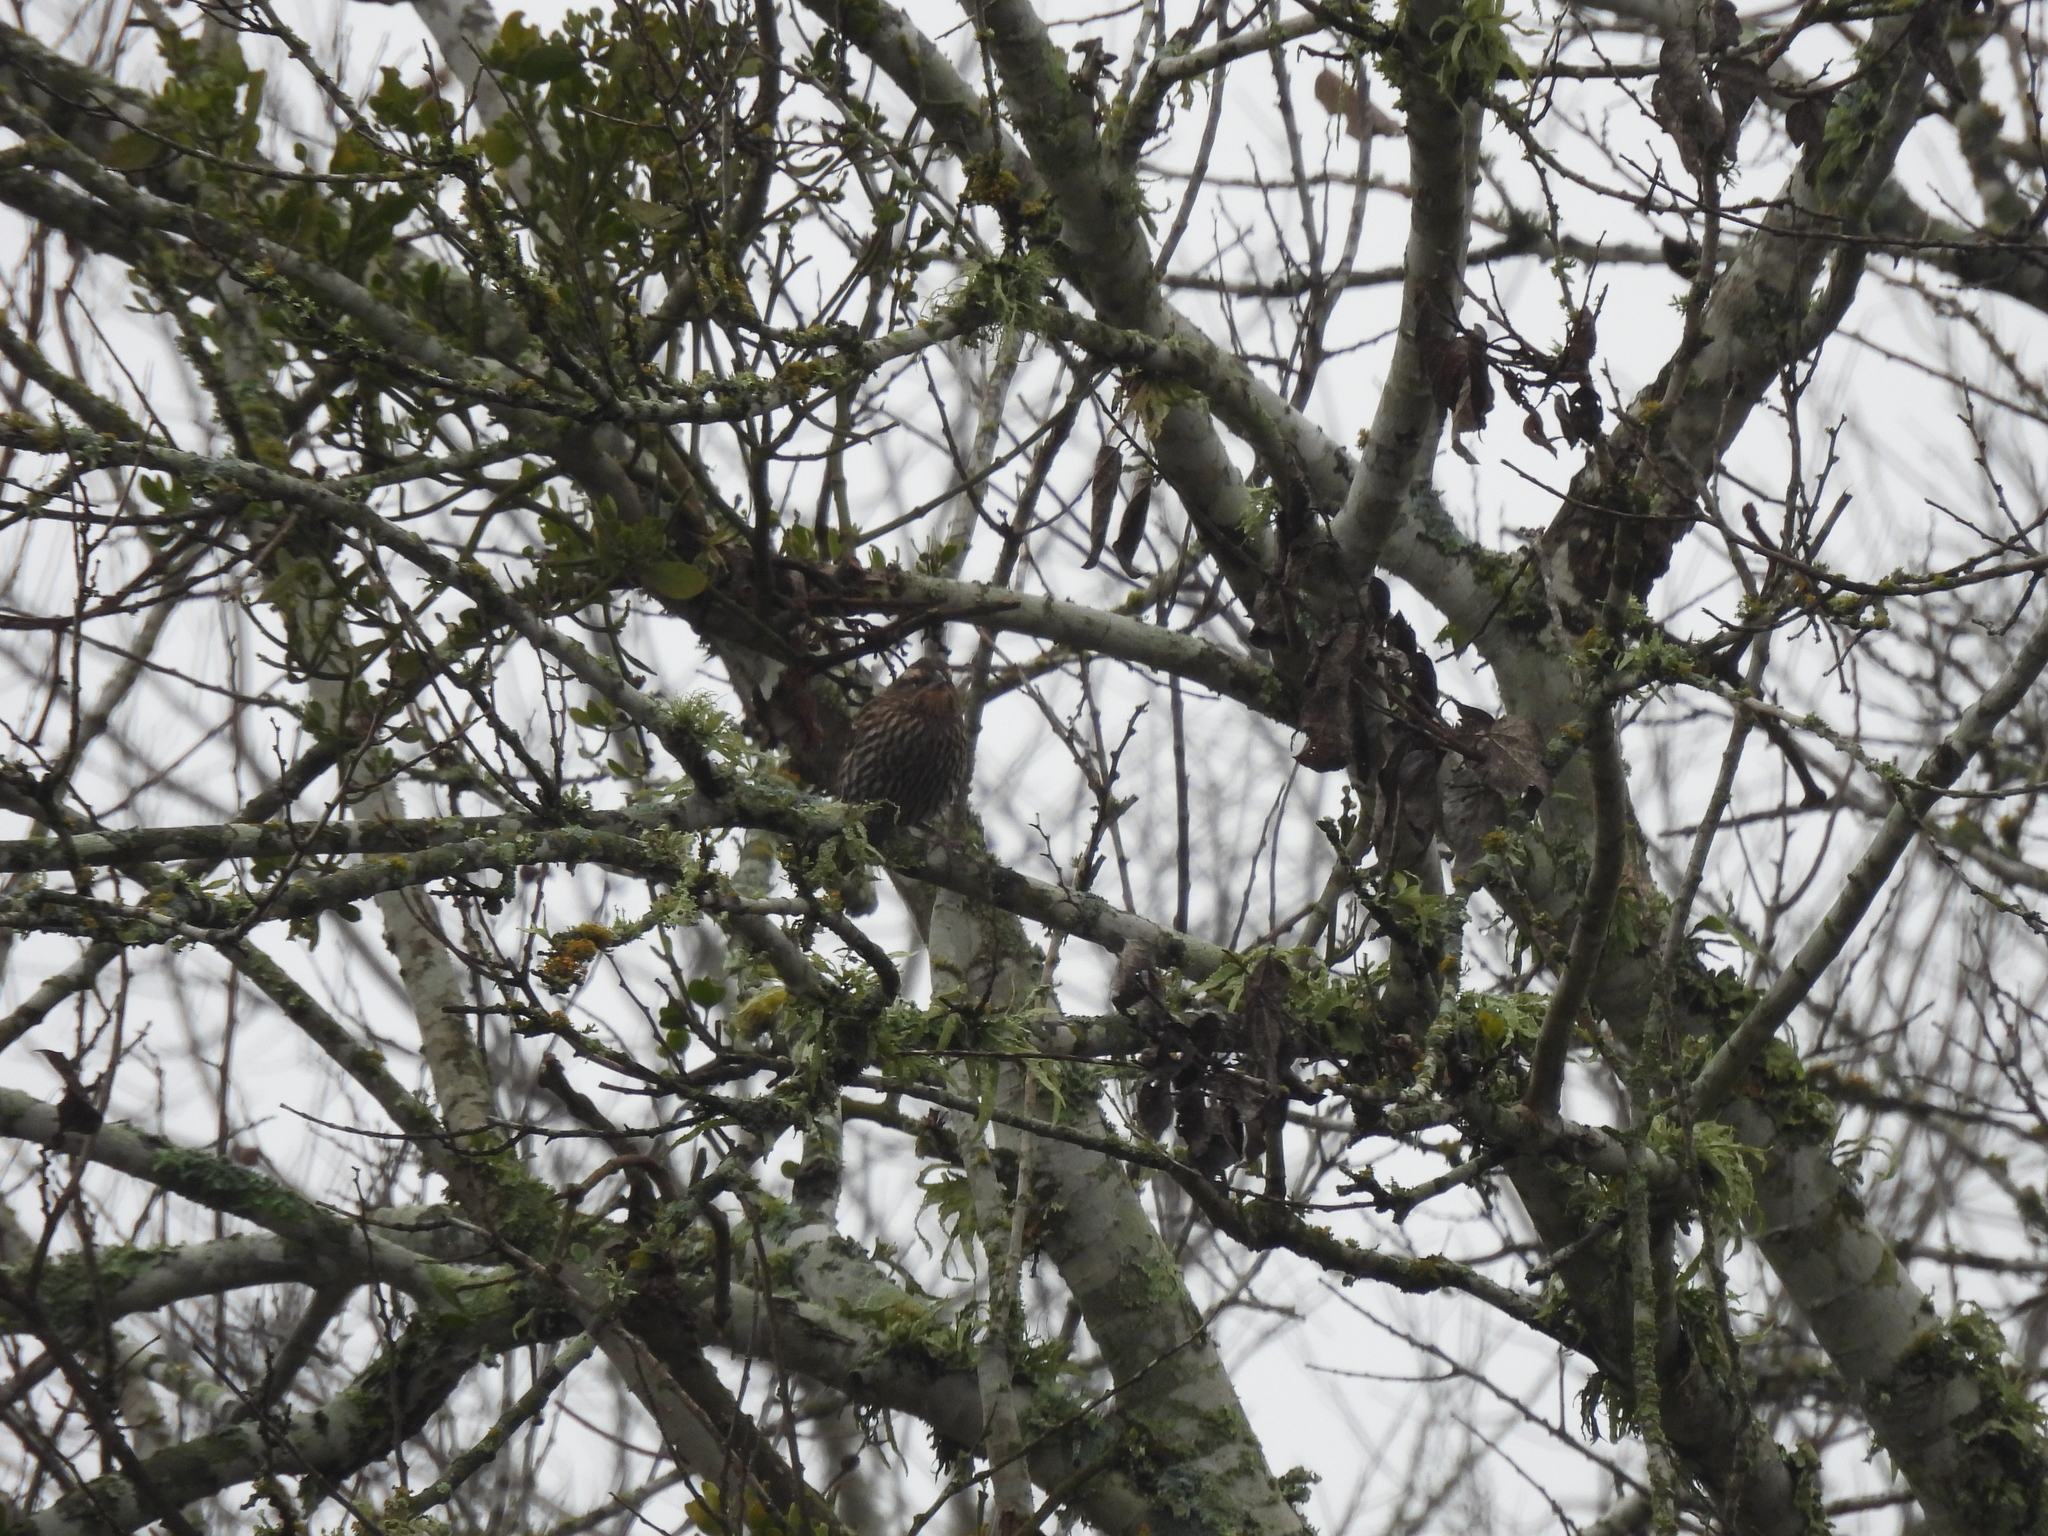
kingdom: Animalia
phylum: Chordata
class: Aves
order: Passeriformes
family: Icteridae
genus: Agelaius
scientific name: Agelaius phoeniceus
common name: Red-winged blackbird
